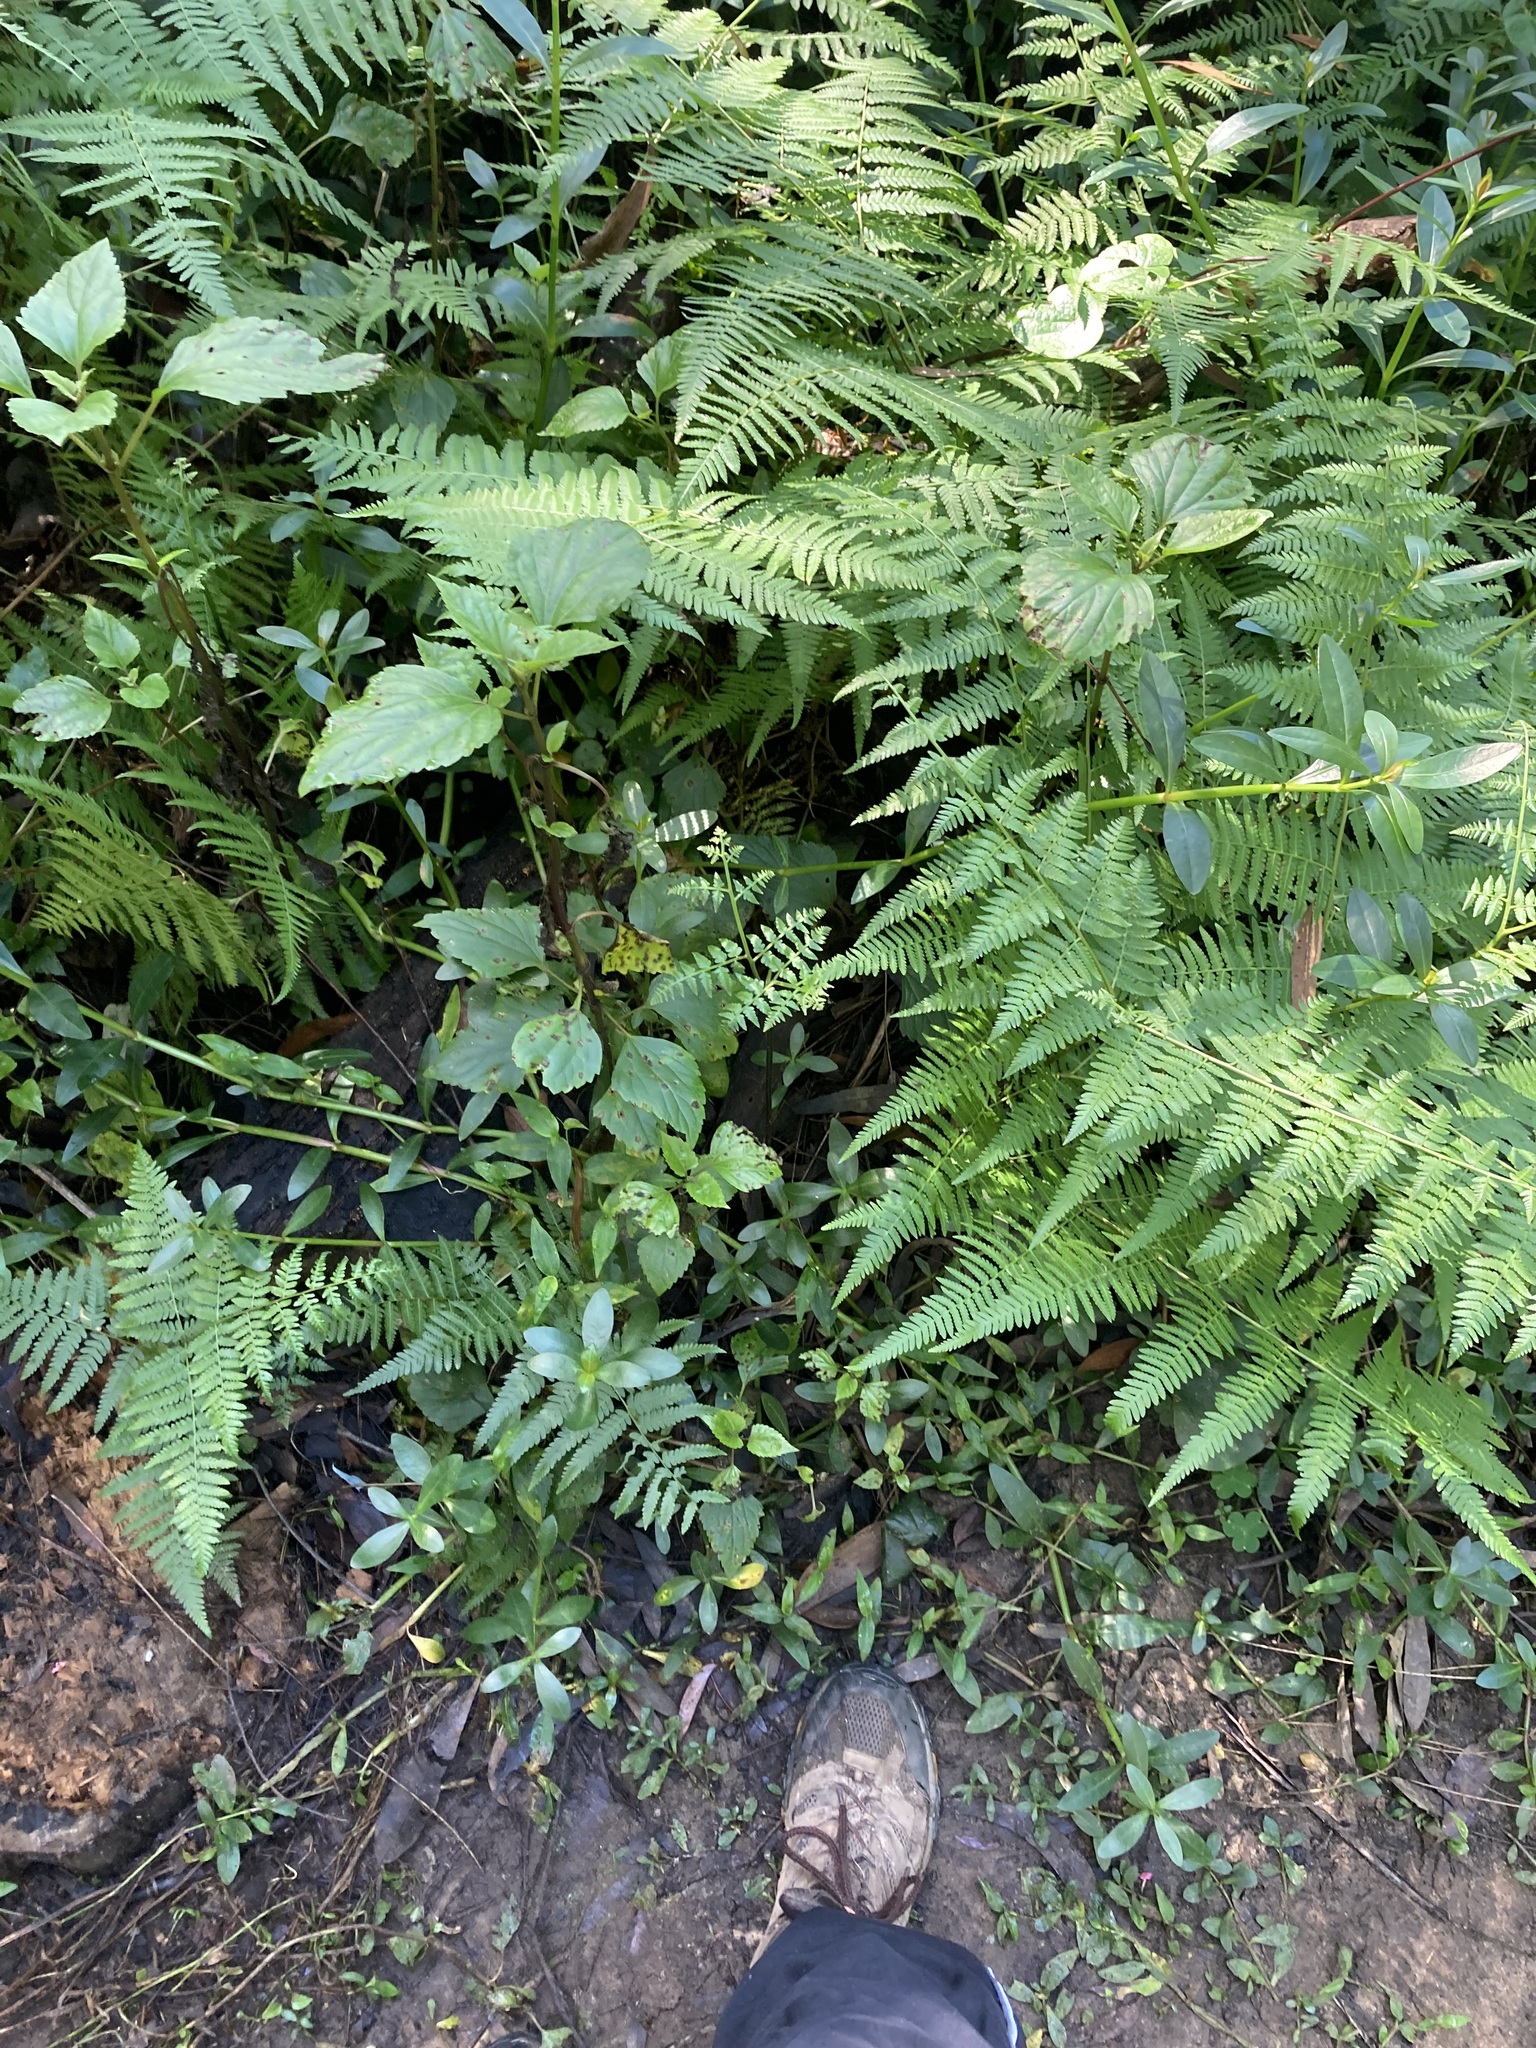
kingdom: Plantae
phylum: Tracheophyta
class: Magnoliopsida
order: Caryophyllales
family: Amaranthaceae
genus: Alternanthera
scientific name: Alternanthera philoxeroides
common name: Alligatorweed
